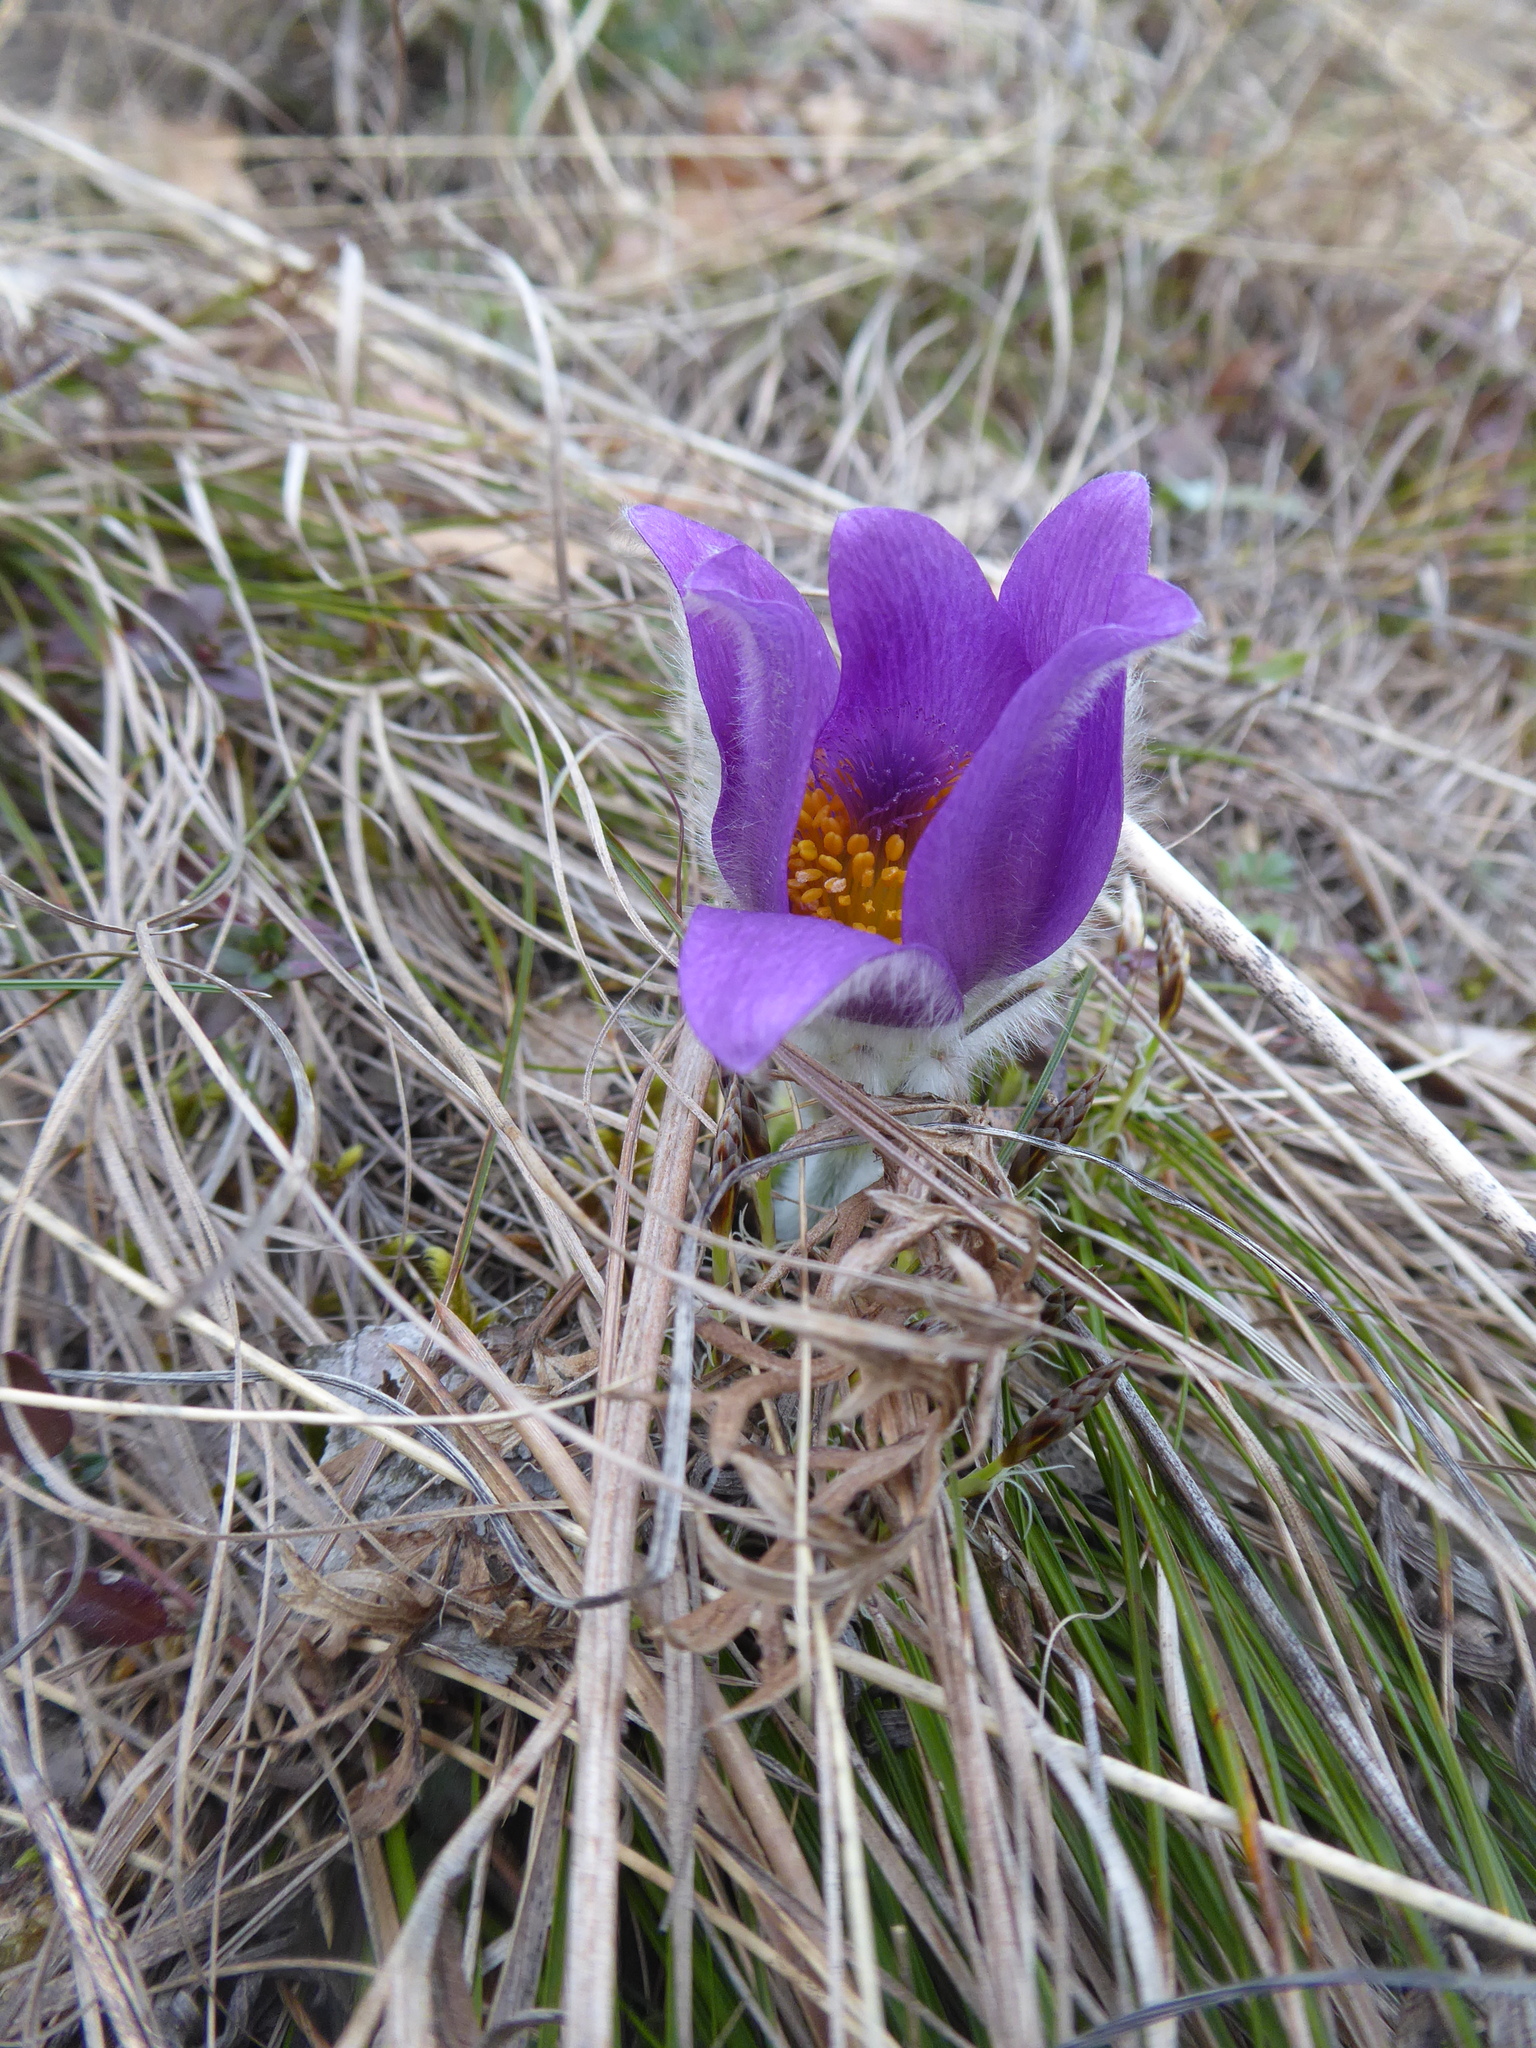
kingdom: Plantae
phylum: Tracheophyta
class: Magnoliopsida
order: Ranunculales
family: Ranunculaceae
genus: Pulsatilla
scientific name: Pulsatilla grandis
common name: Greater pasque flower
